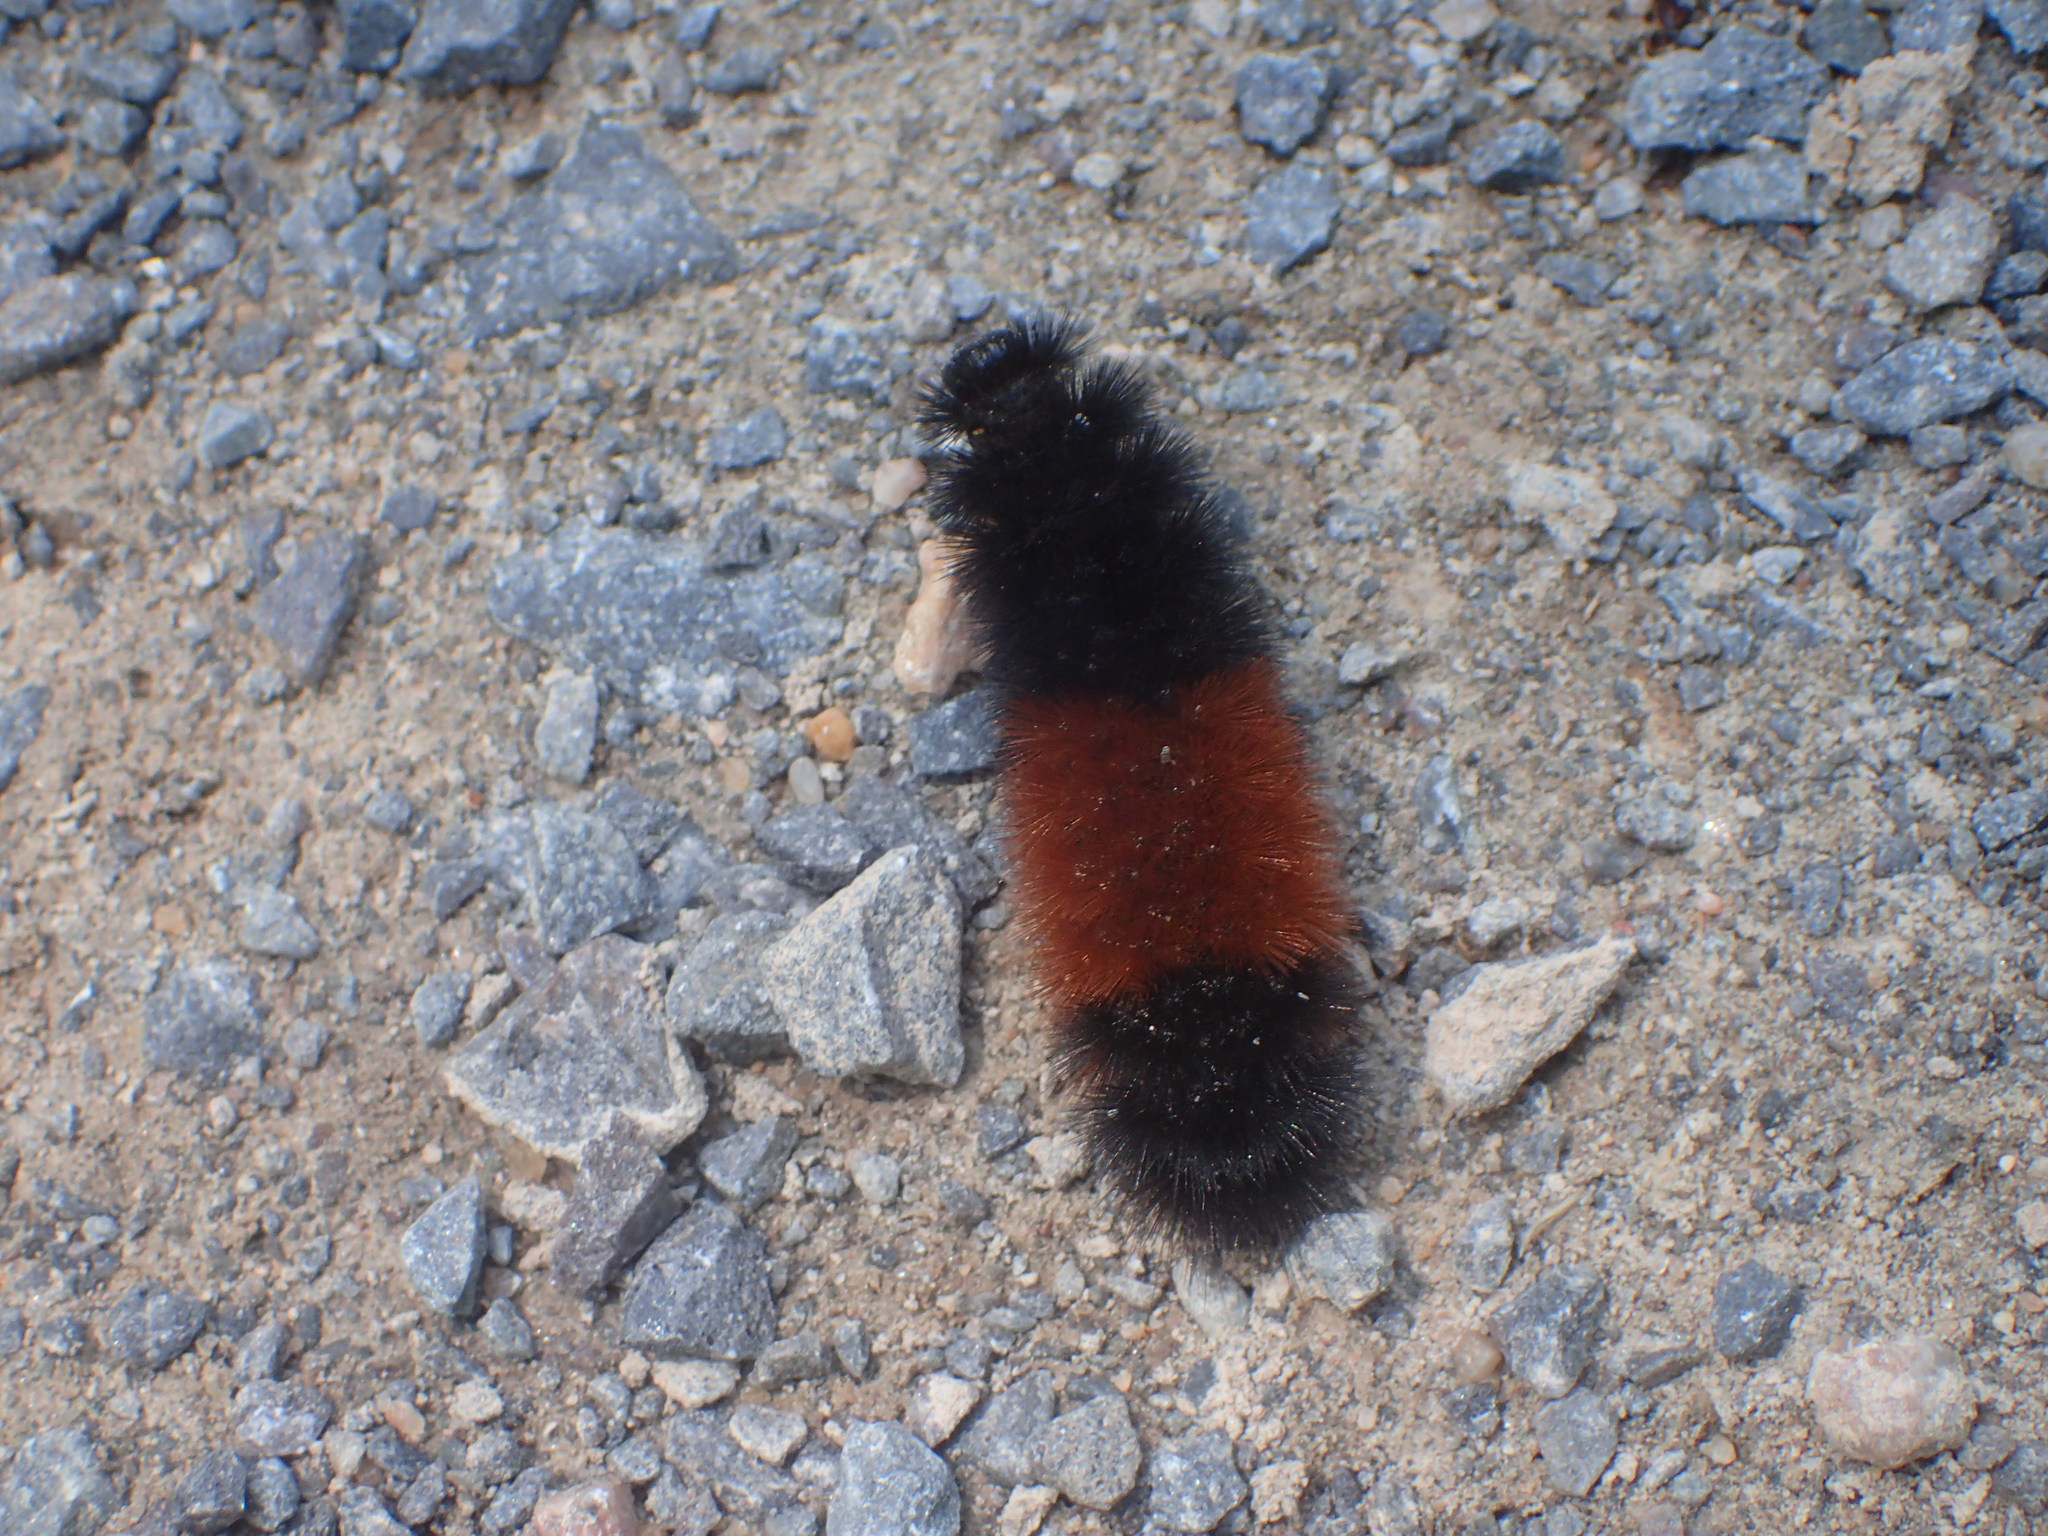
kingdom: Animalia
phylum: Arthropoda
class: Insecta
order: Lepidoptera
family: Erebidae
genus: Pyrrharctia
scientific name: Pyrrharctia isabella
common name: Isabella tiger moth
